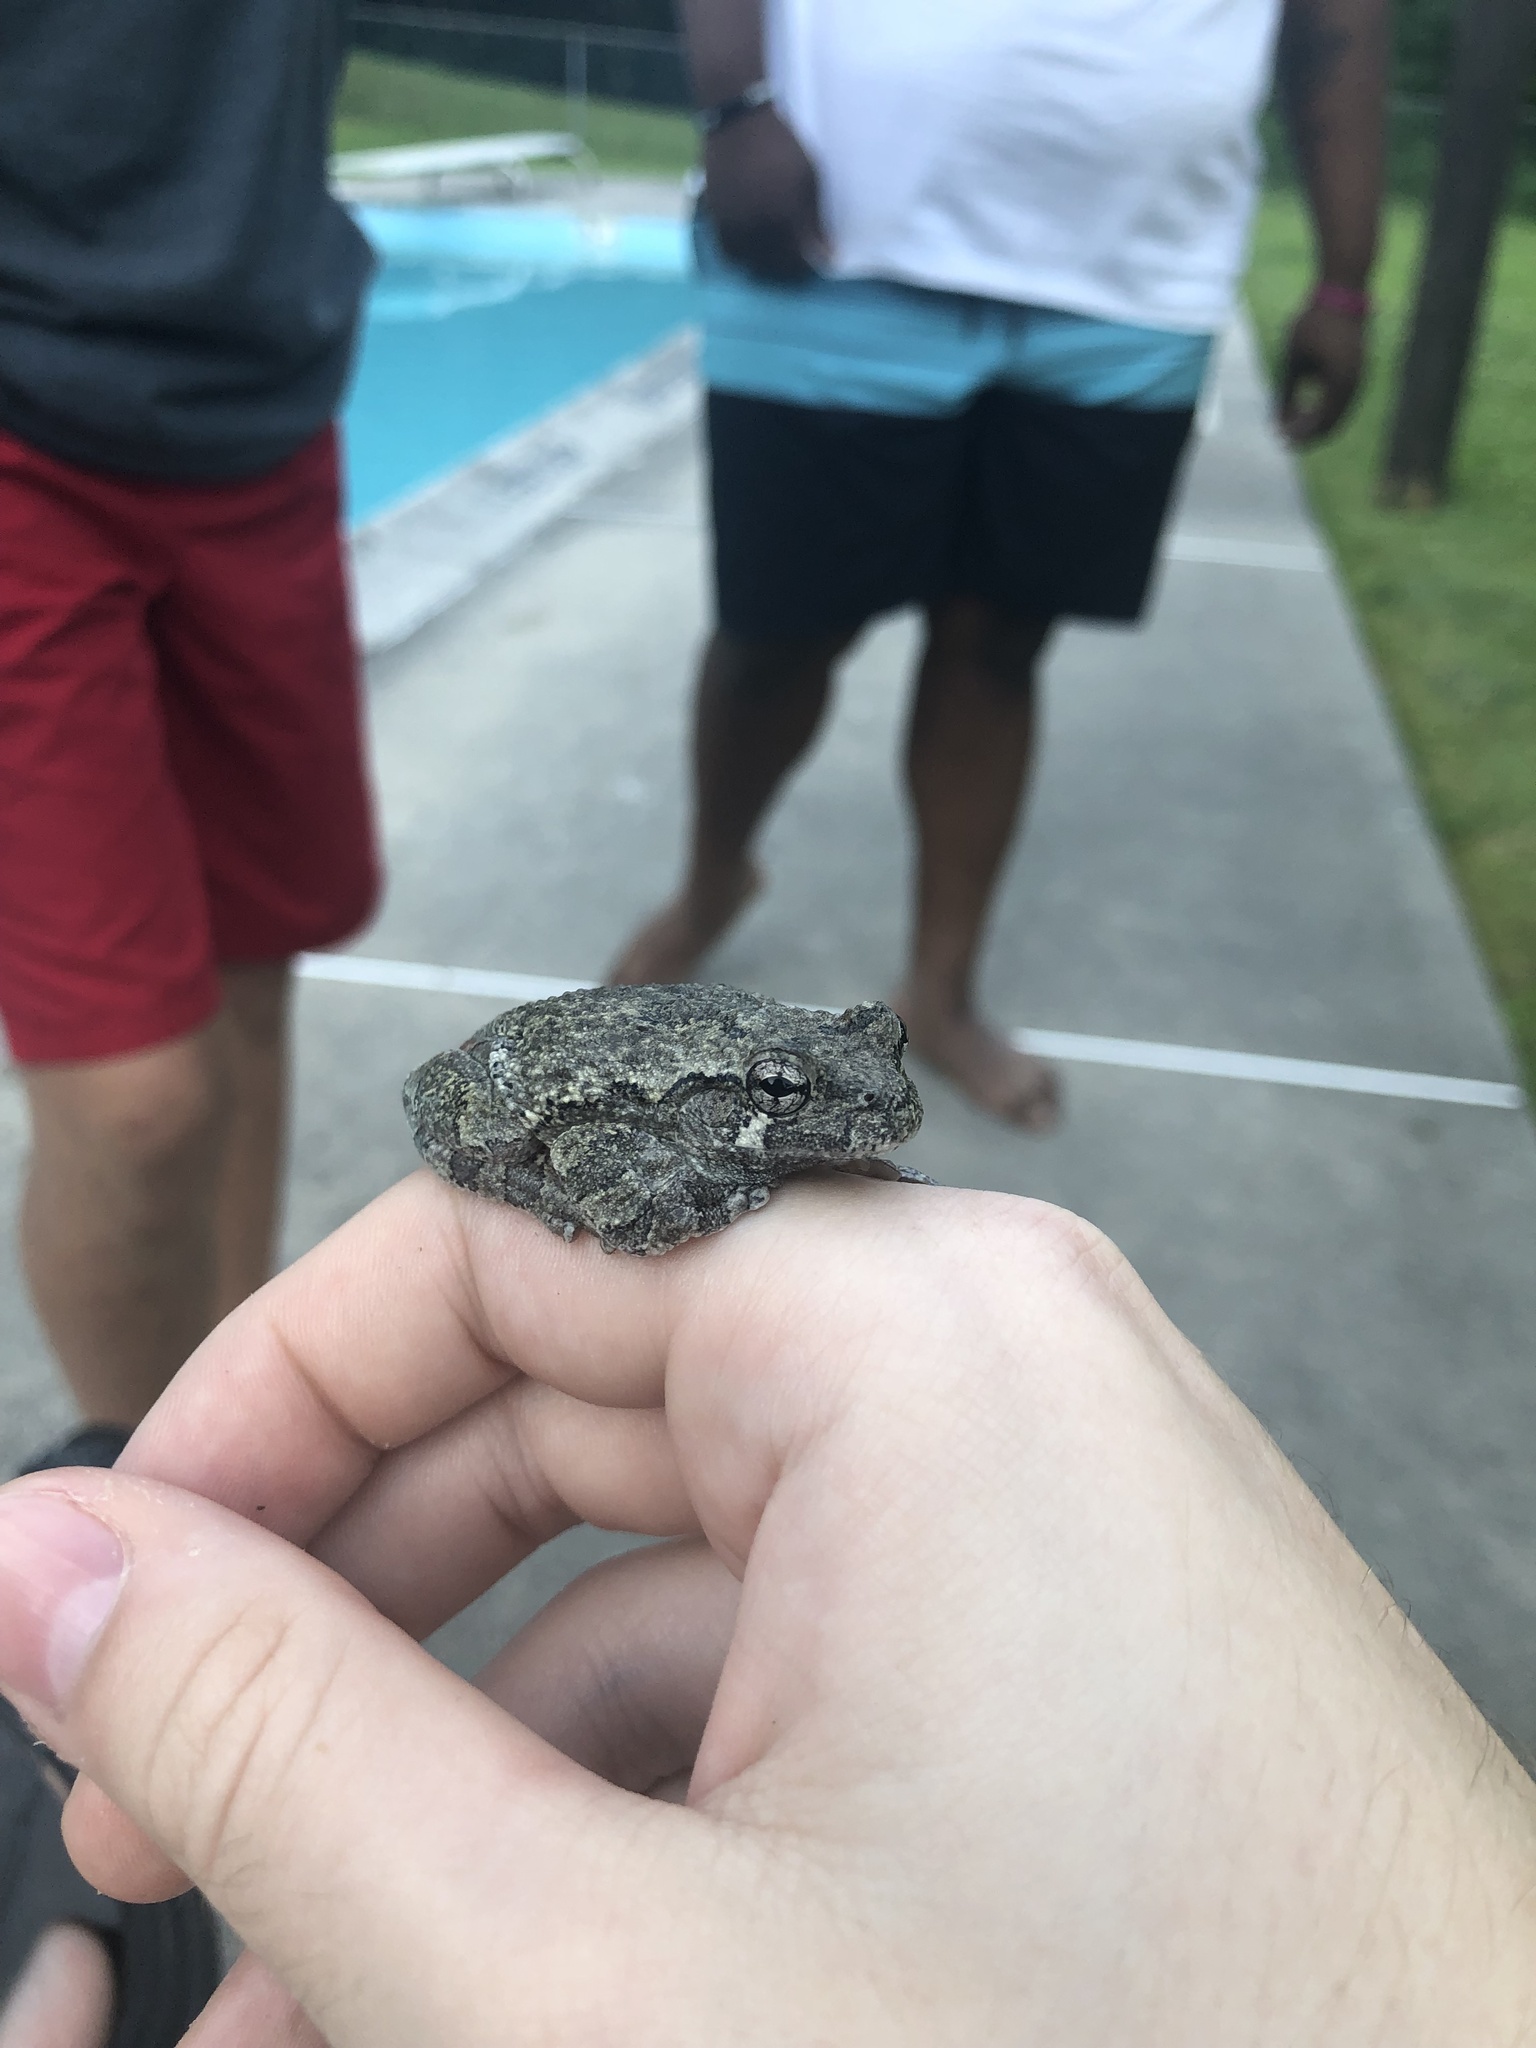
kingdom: Animalia
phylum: Chordata
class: Amphibia
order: Anura
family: Hylidae
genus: Dryophytes
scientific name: Dryophytes versicolor
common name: Gray treefrog
